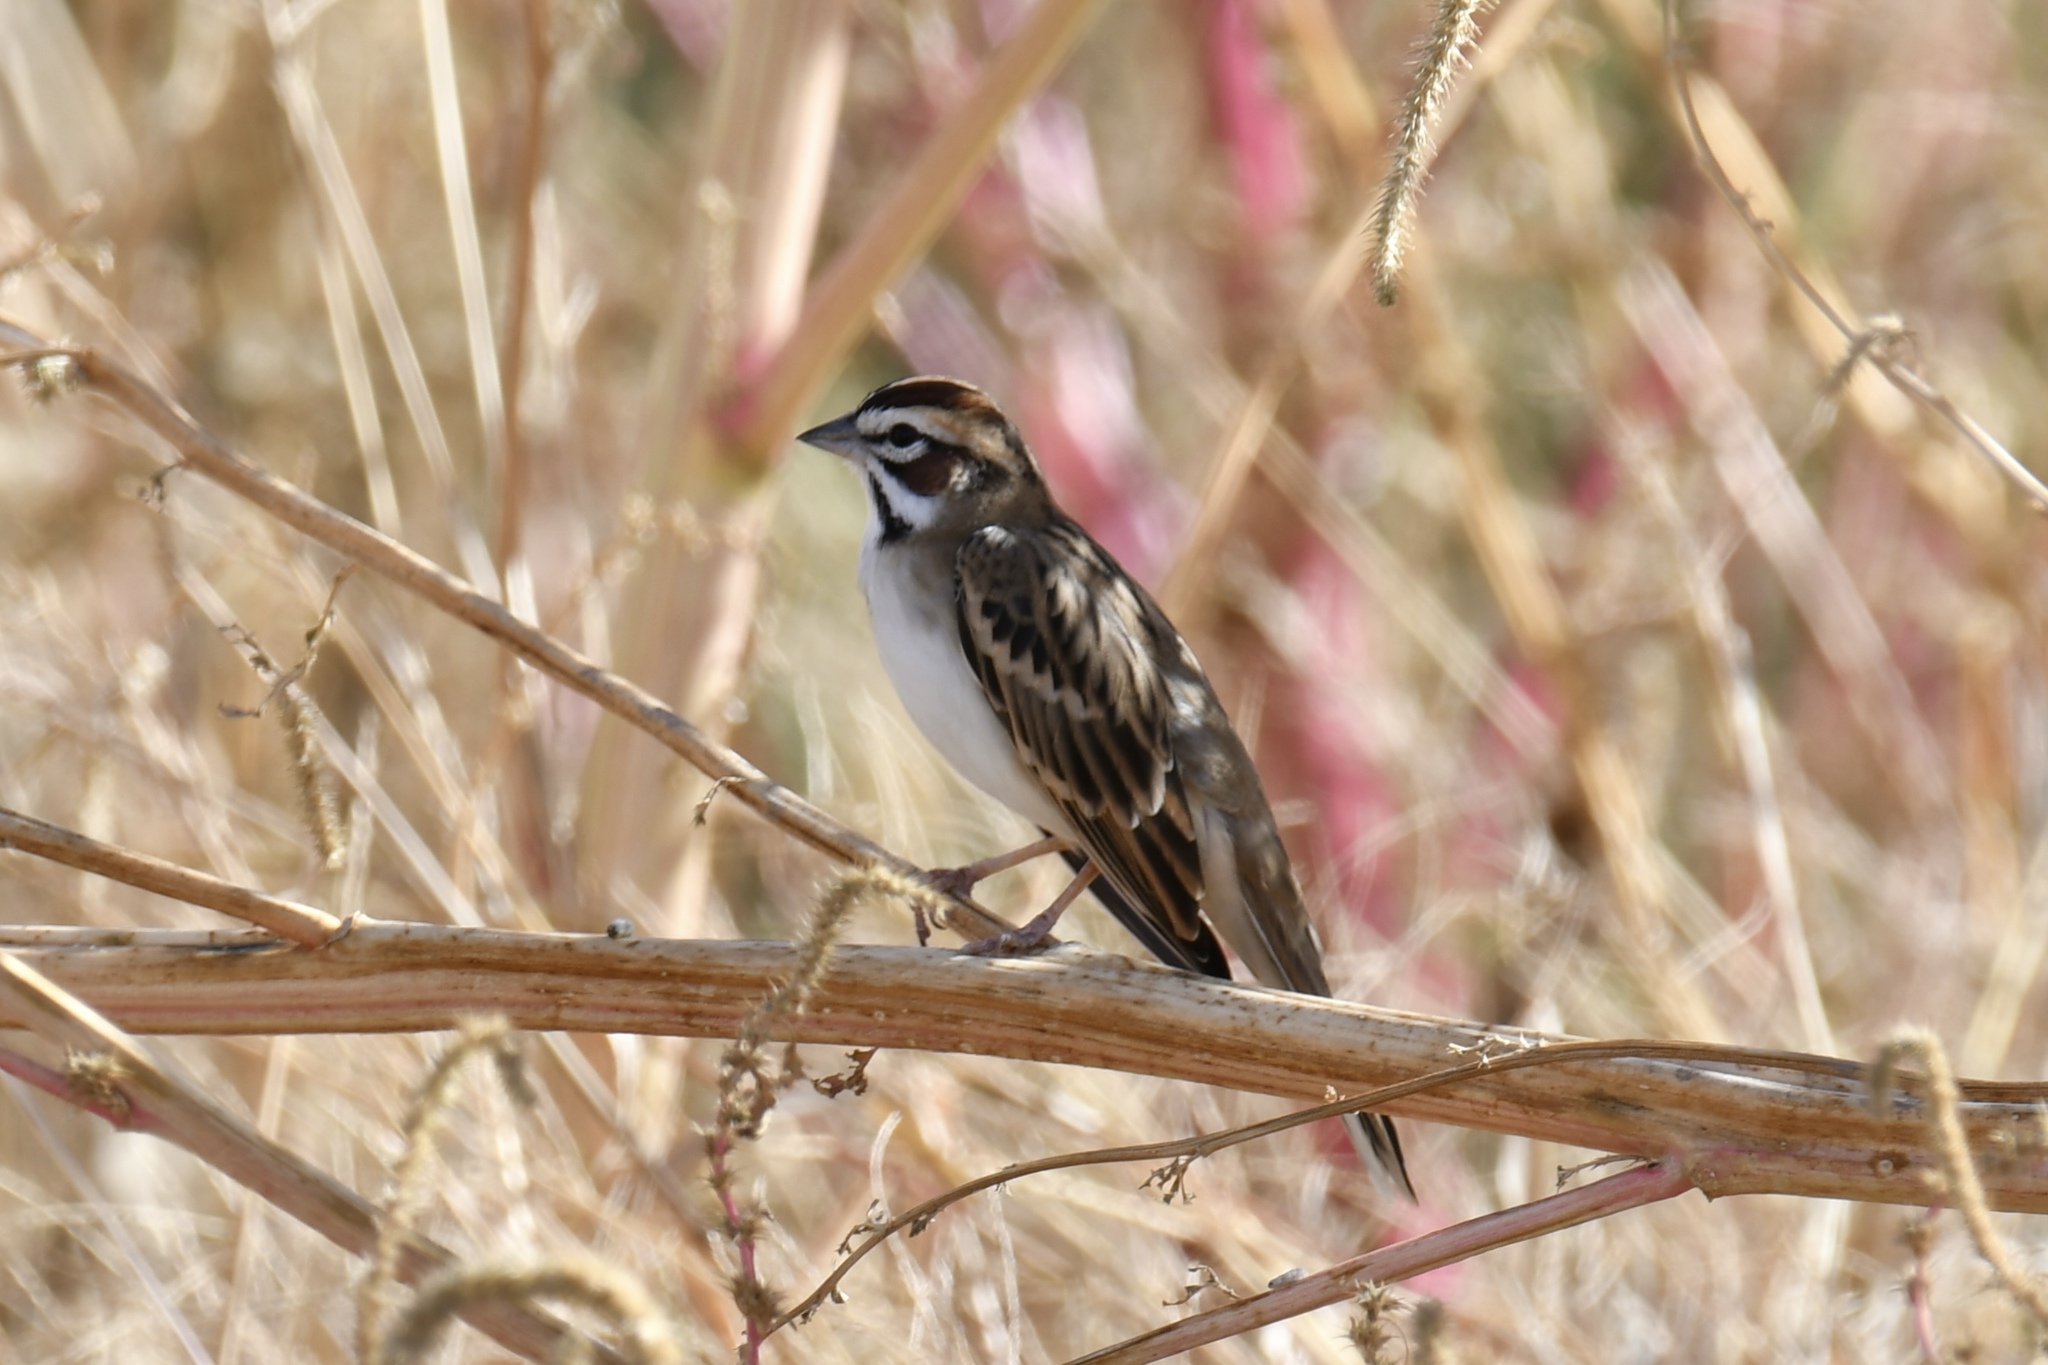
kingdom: Animalia
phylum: Chordata
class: Aves
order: Passeriformes
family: Passerellidae
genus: Chondestes
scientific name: Chondestes grammacus
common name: Lark sparrow
